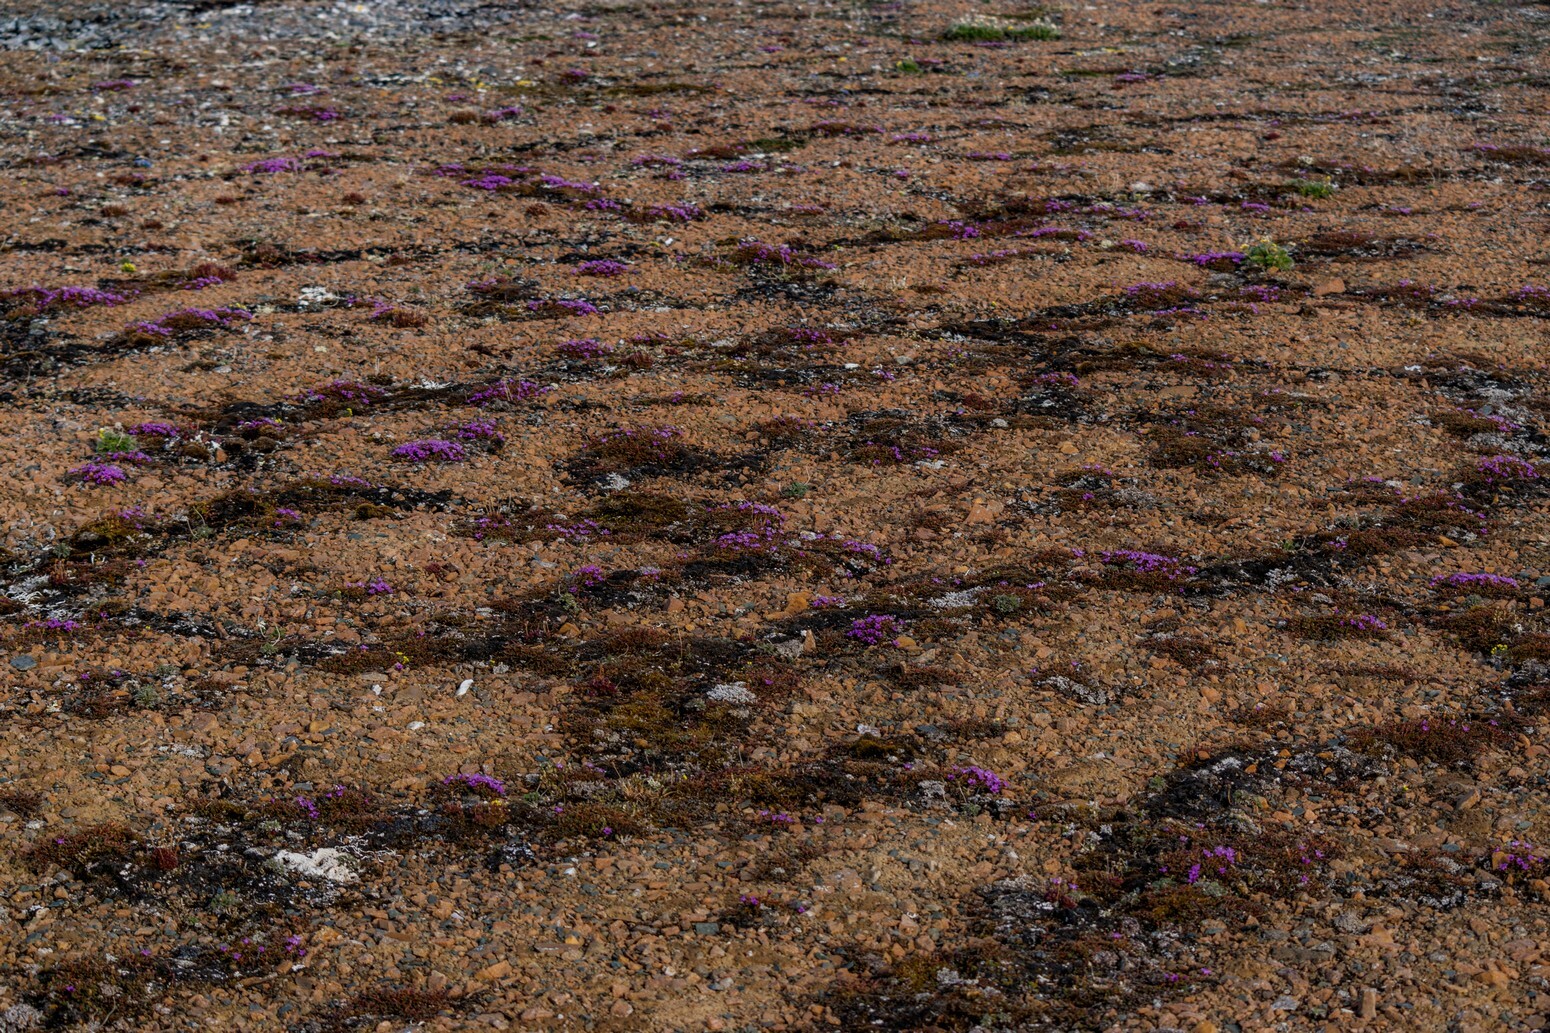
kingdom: Plantae
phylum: Tracheophyta
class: Magnoliopsida
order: Saxifragales
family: Saxifragaceae
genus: Saxifraga
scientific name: Saxifraga oppositifolia
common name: Purple saxifrage
